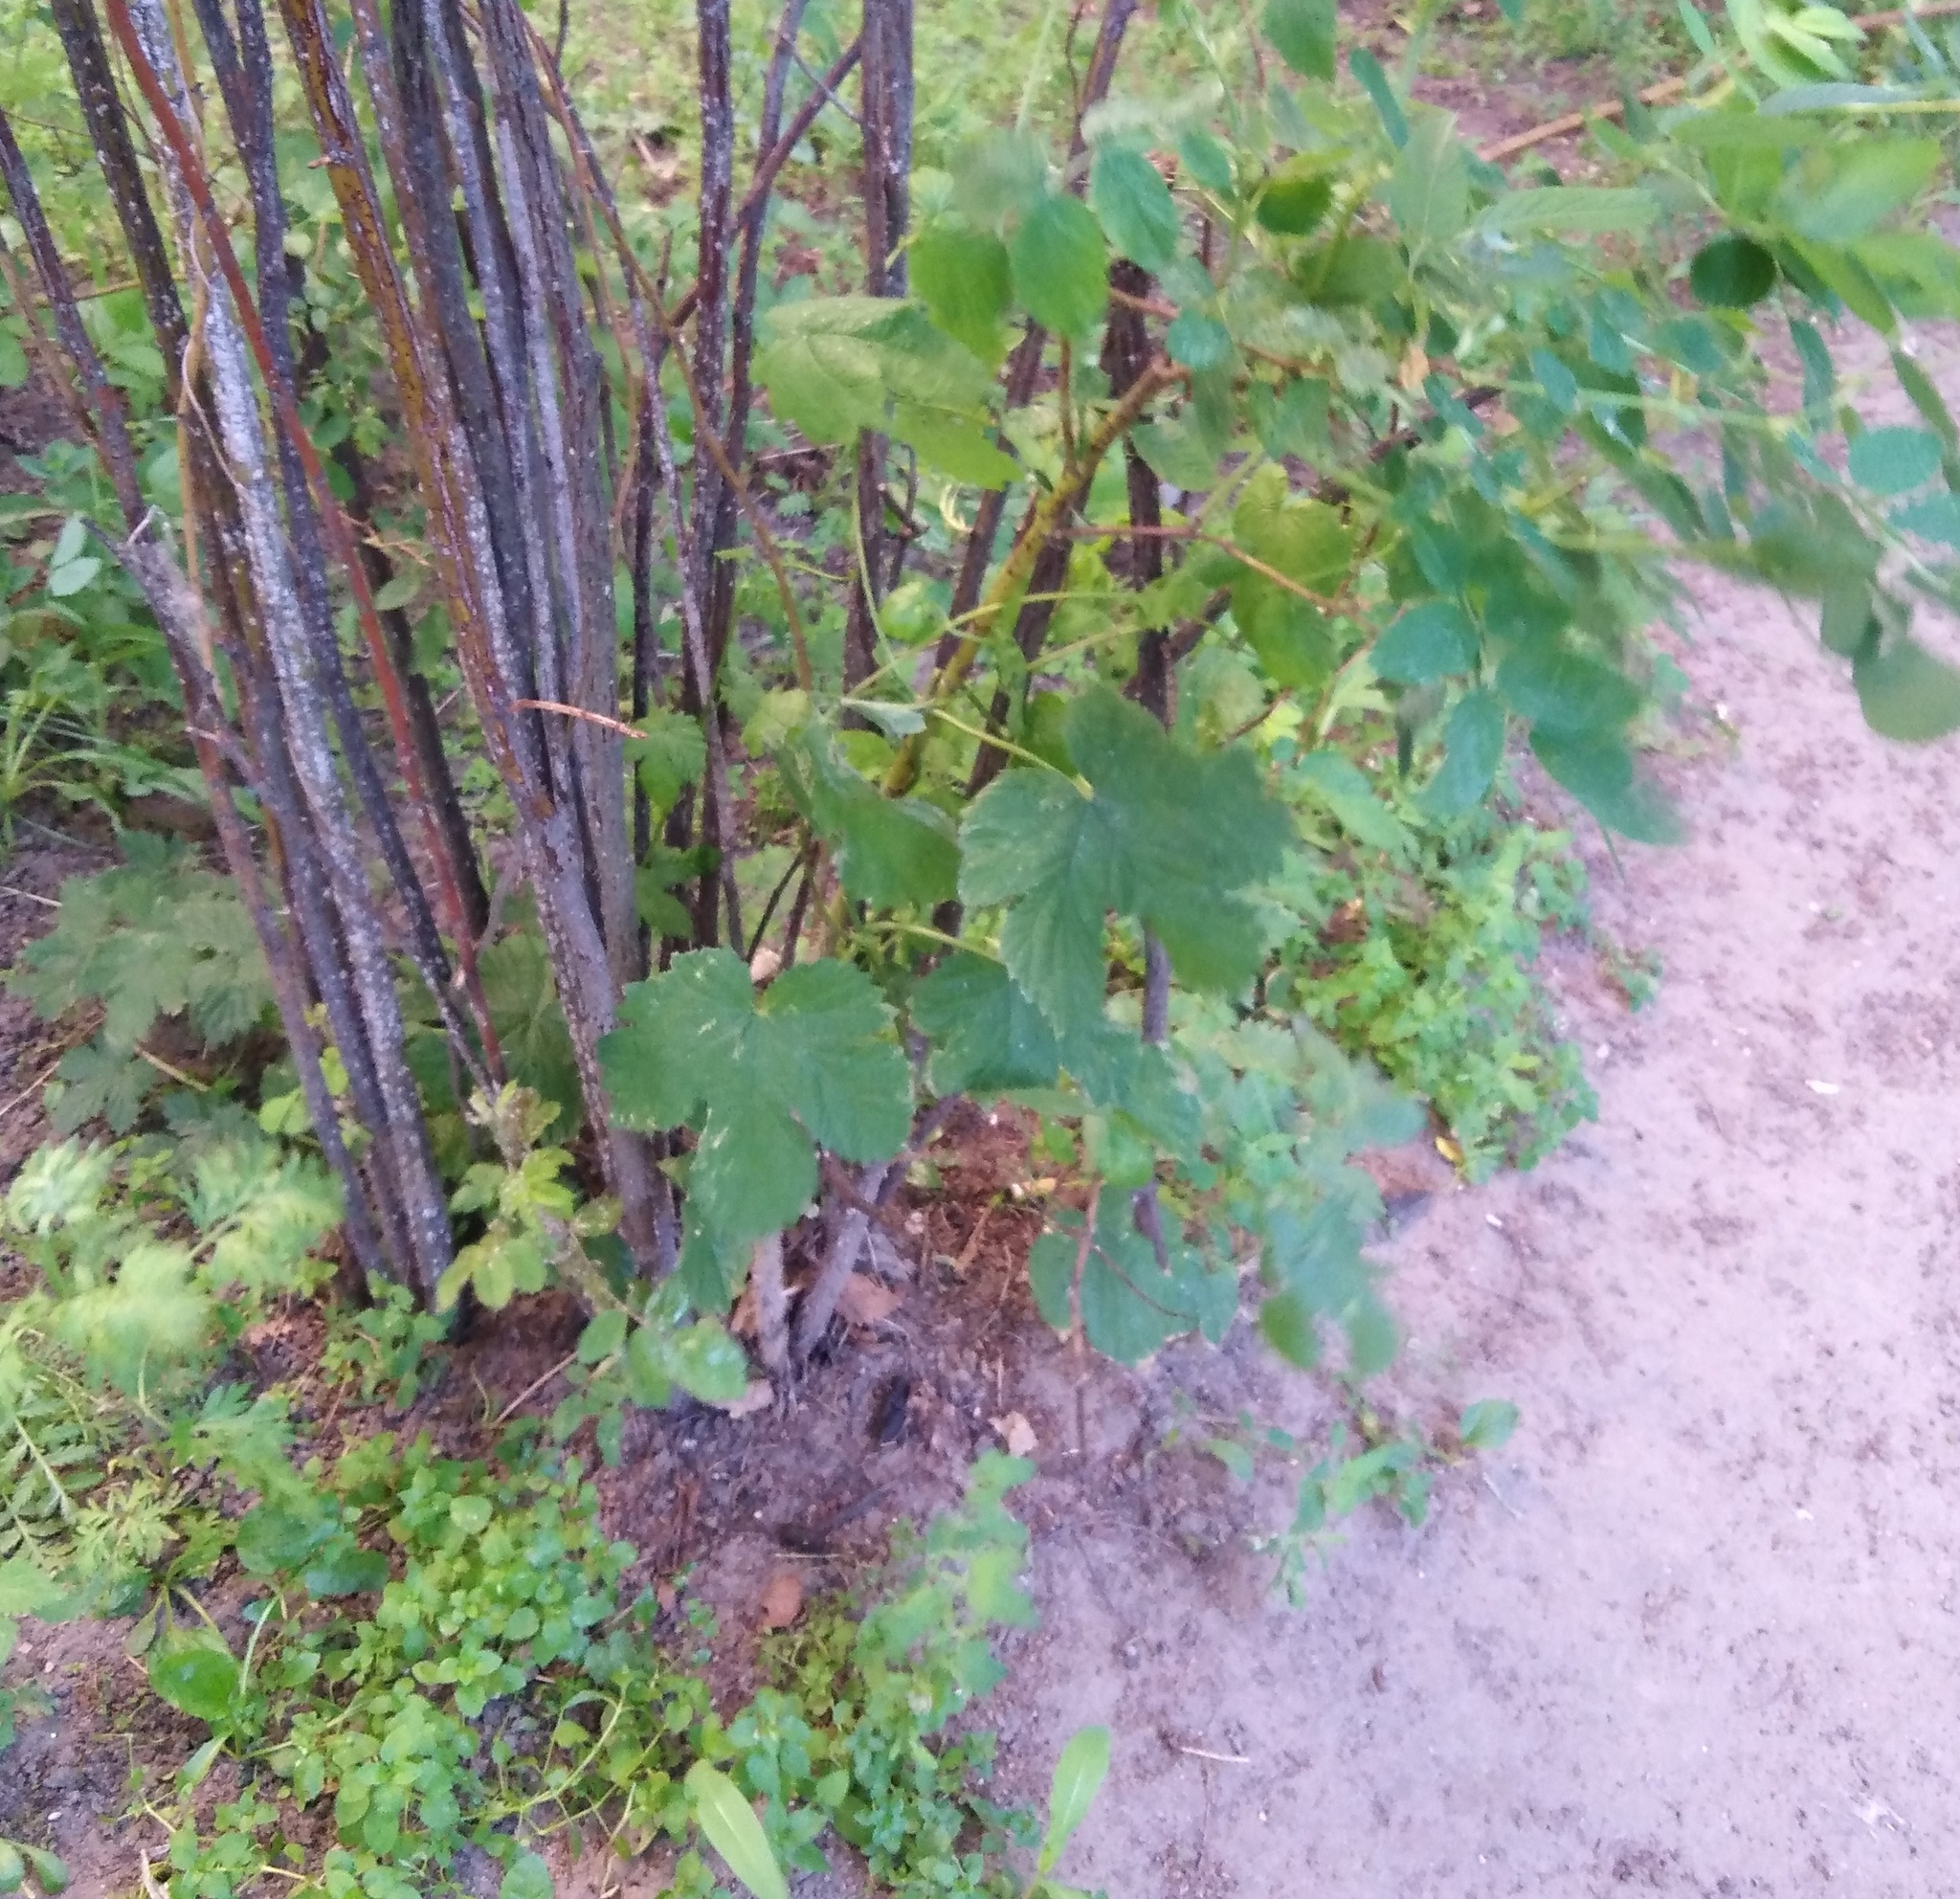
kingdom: Plantae
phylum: Tracheophyta
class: Magnoliopsida
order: Rosales
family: Cannabaceae
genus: Humulus
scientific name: Humulus lupulus
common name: Hop
